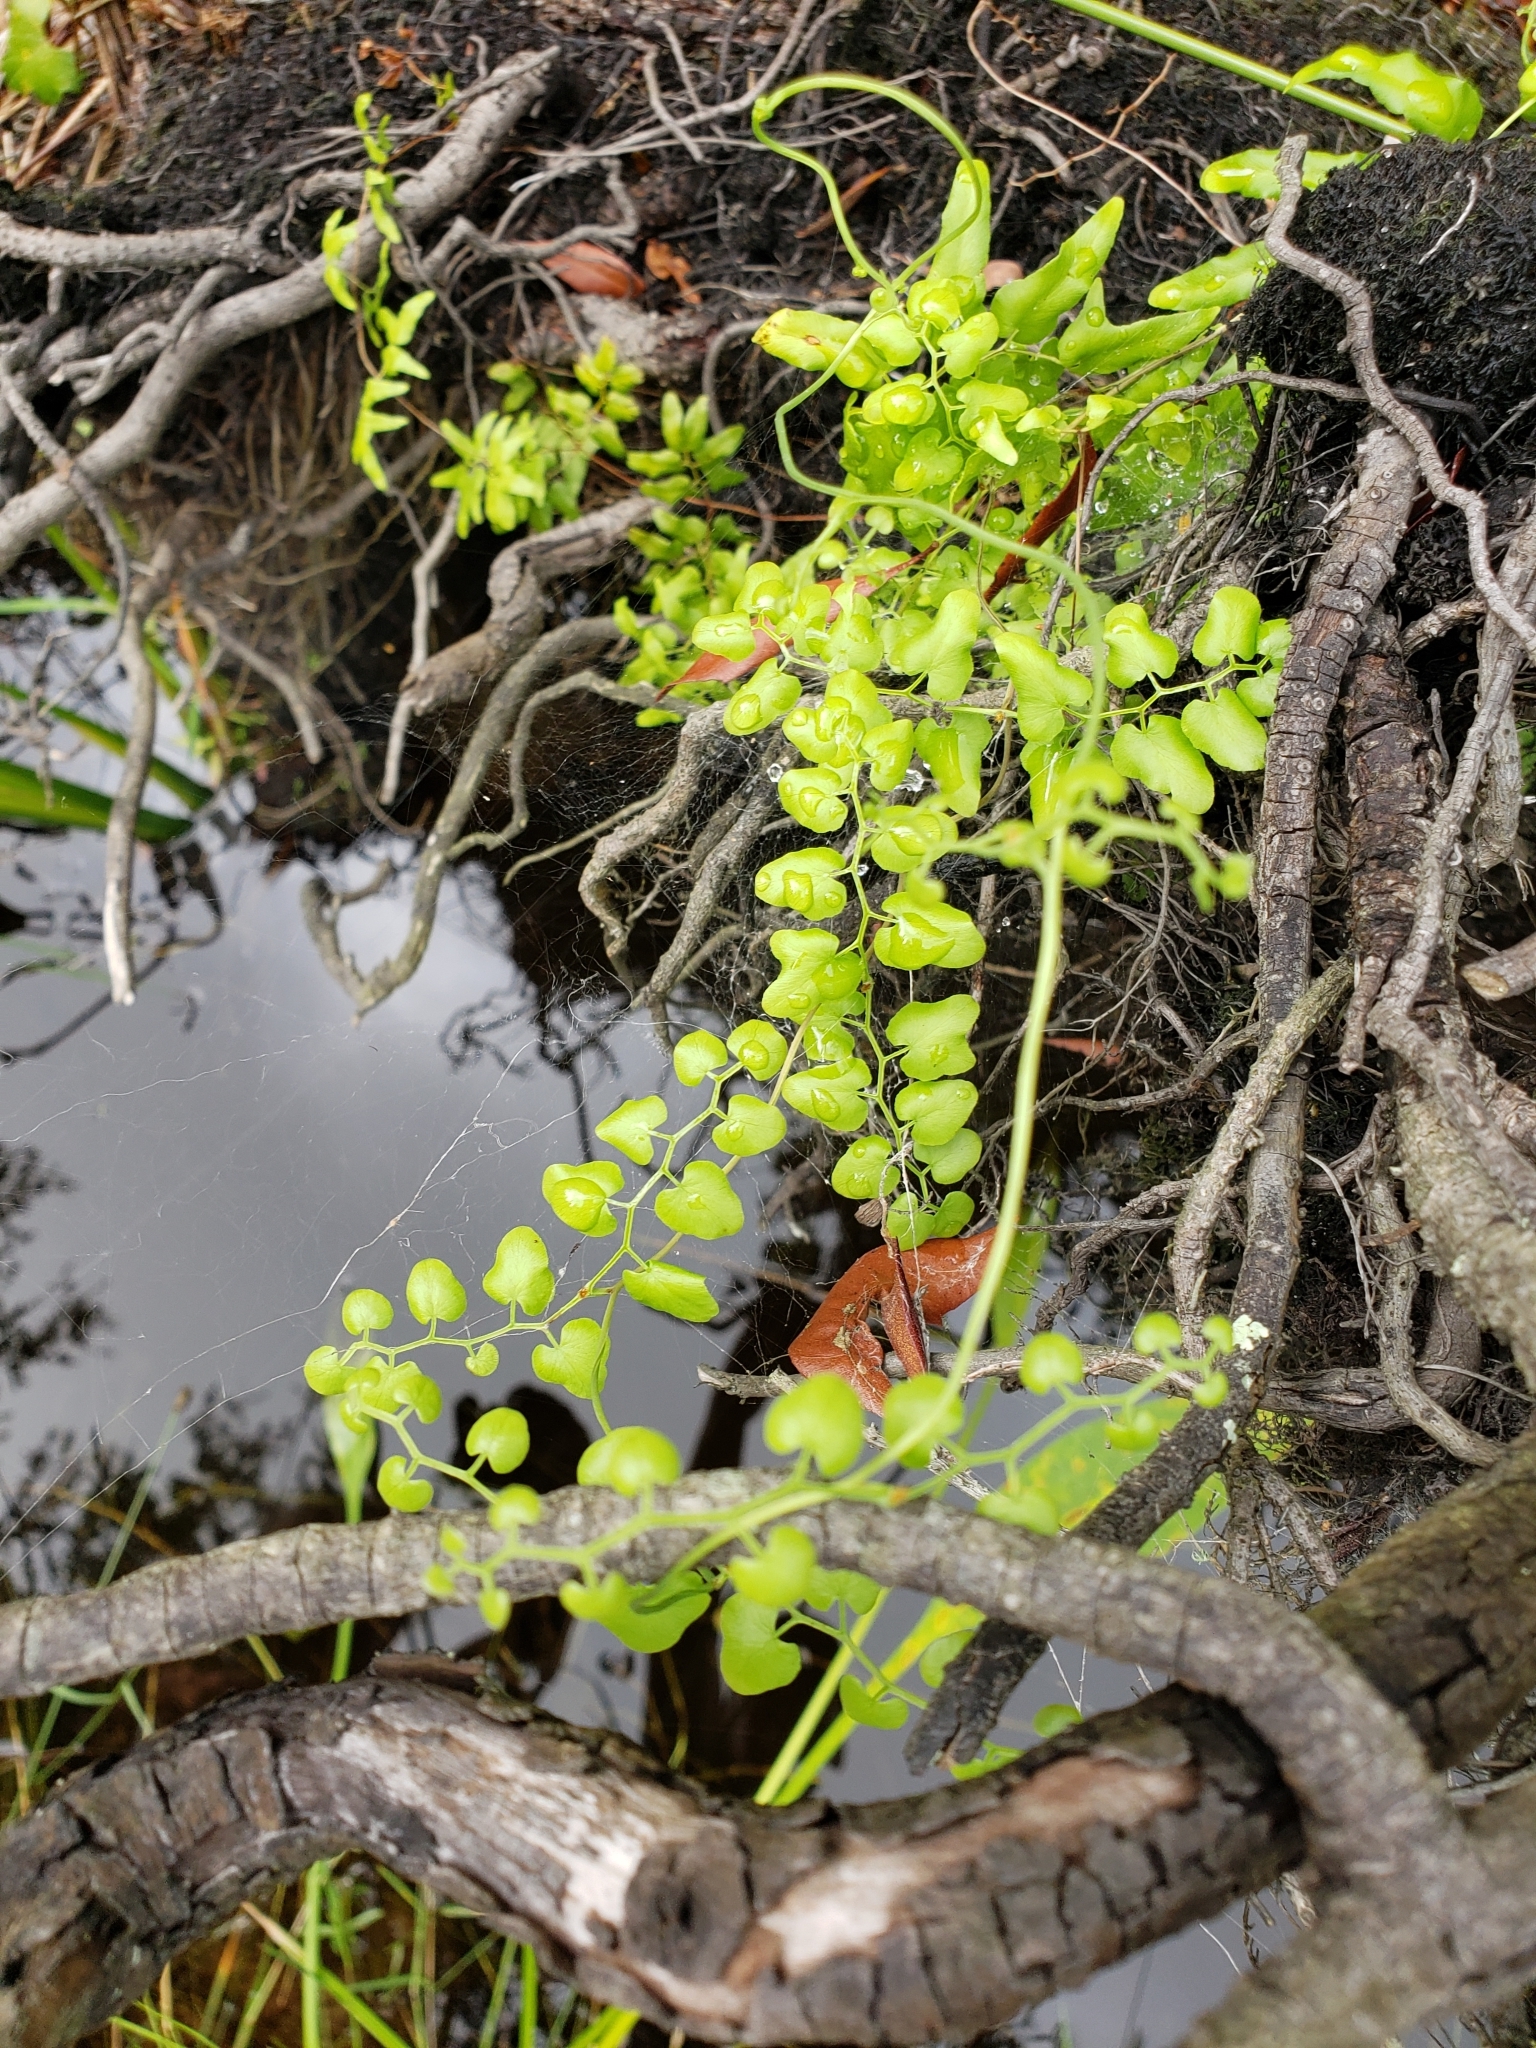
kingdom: Plantae
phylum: Tracheophyta
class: Polypodiopsida
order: Schizaeales
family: Lygodiaceae
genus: Lygodium
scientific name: Lygodium microphyllum
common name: Small-leaf climbing fern
